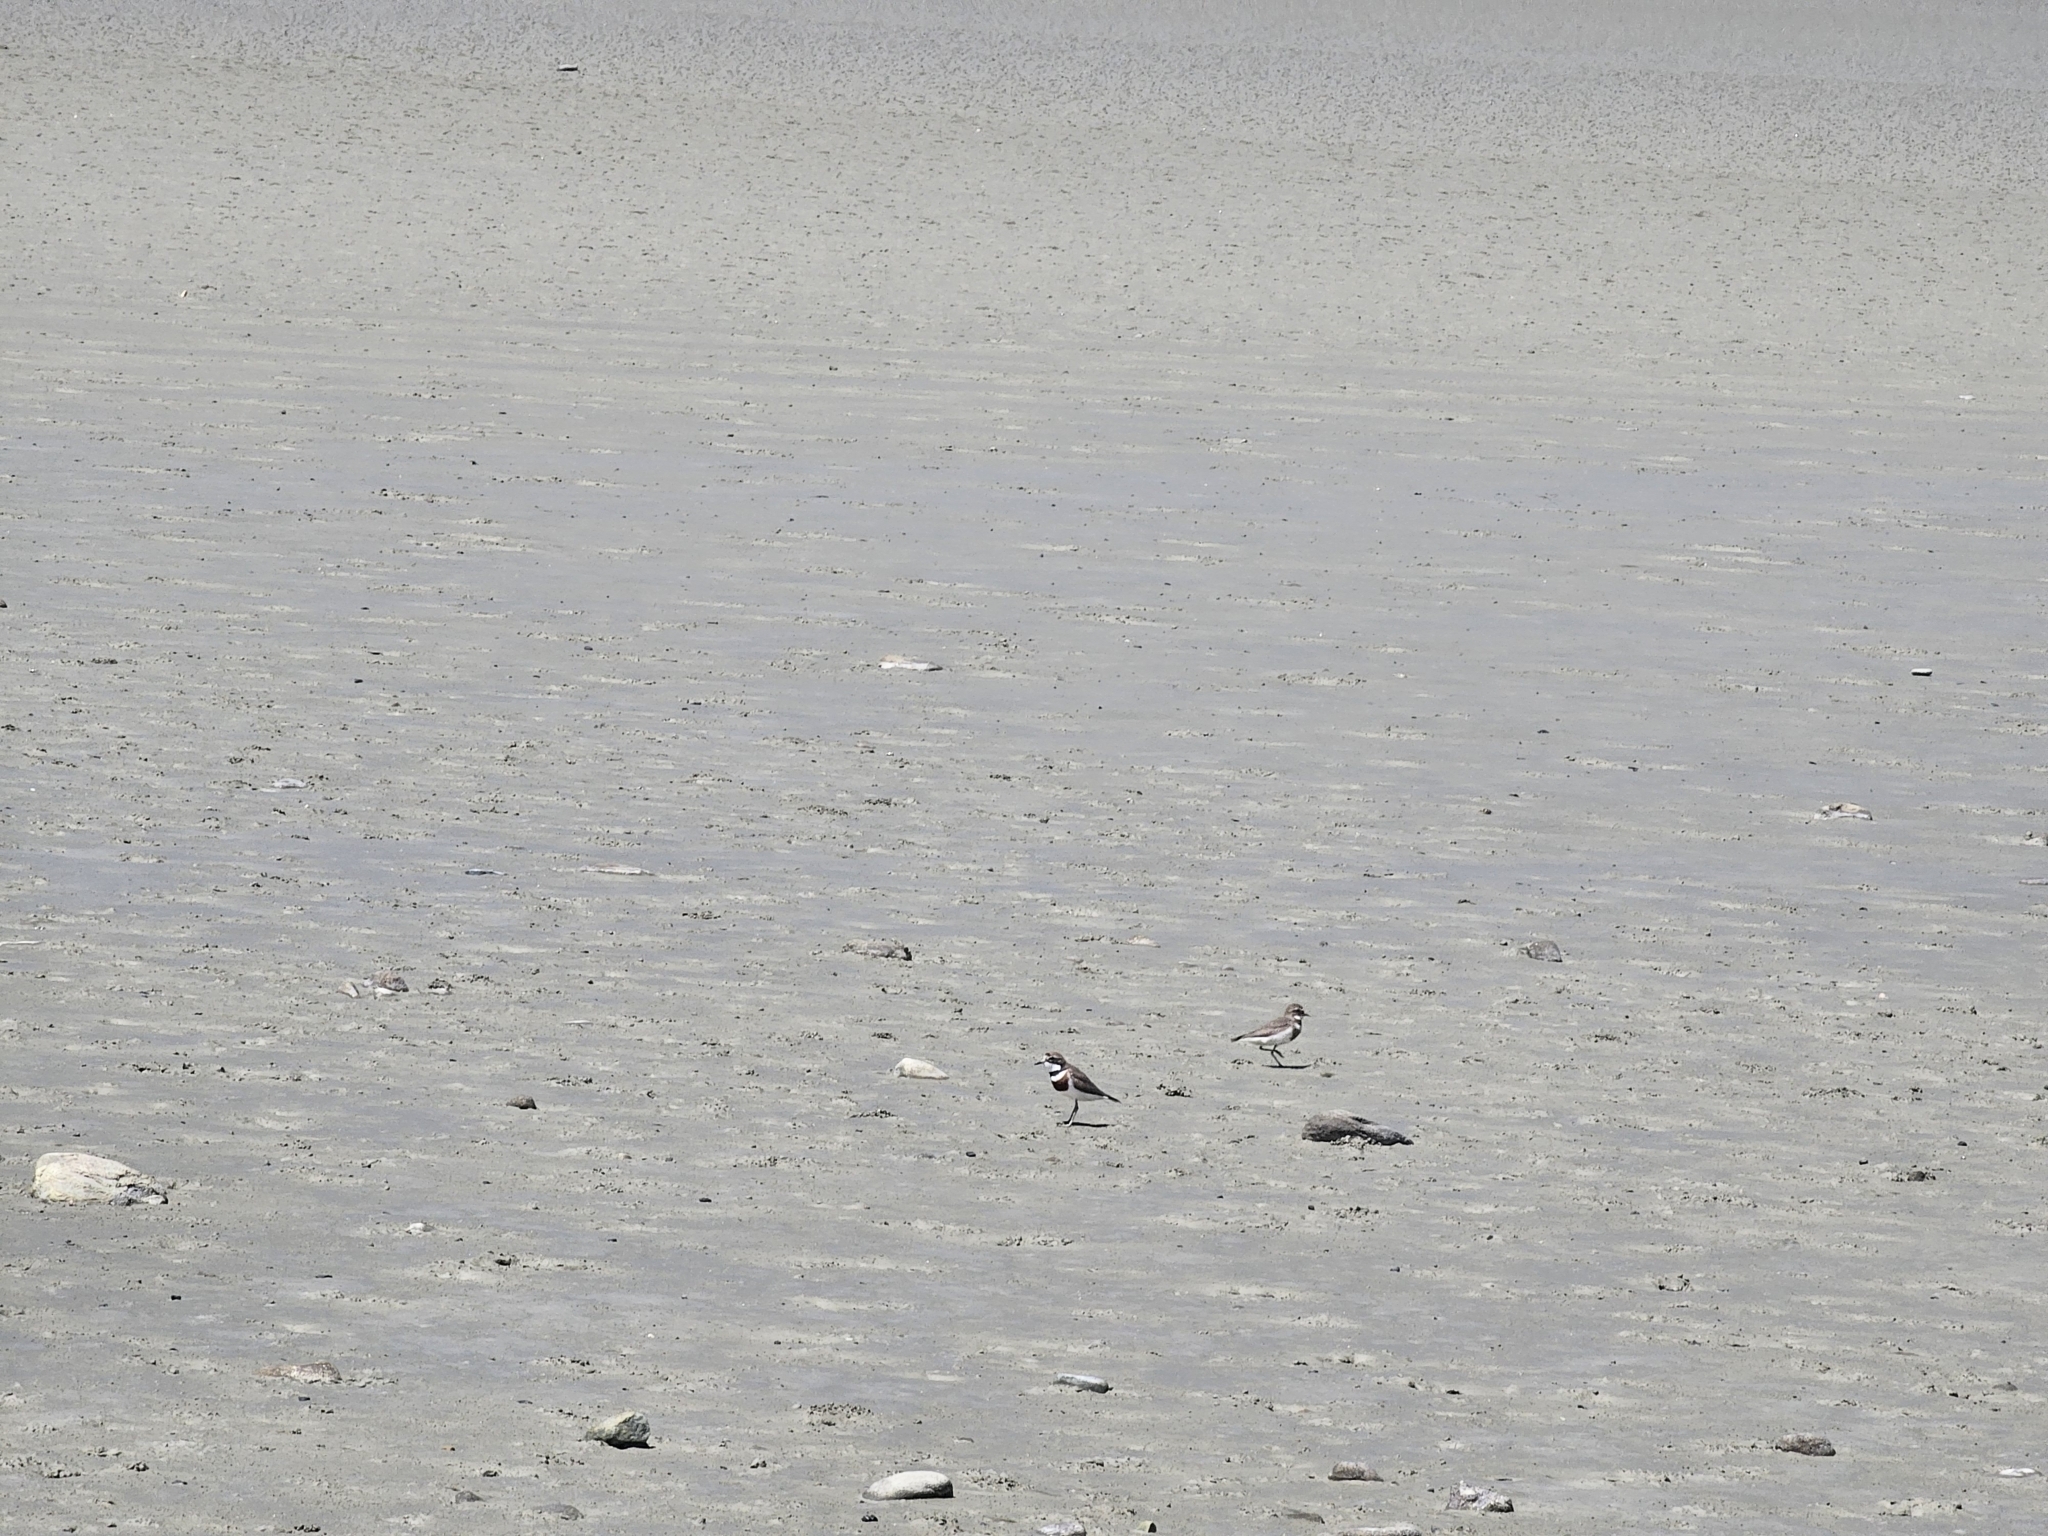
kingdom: Animalia
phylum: Chordata
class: Aves
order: Charadriiformes
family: Charadriidae
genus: Anarhynchus
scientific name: Anarhynchus
